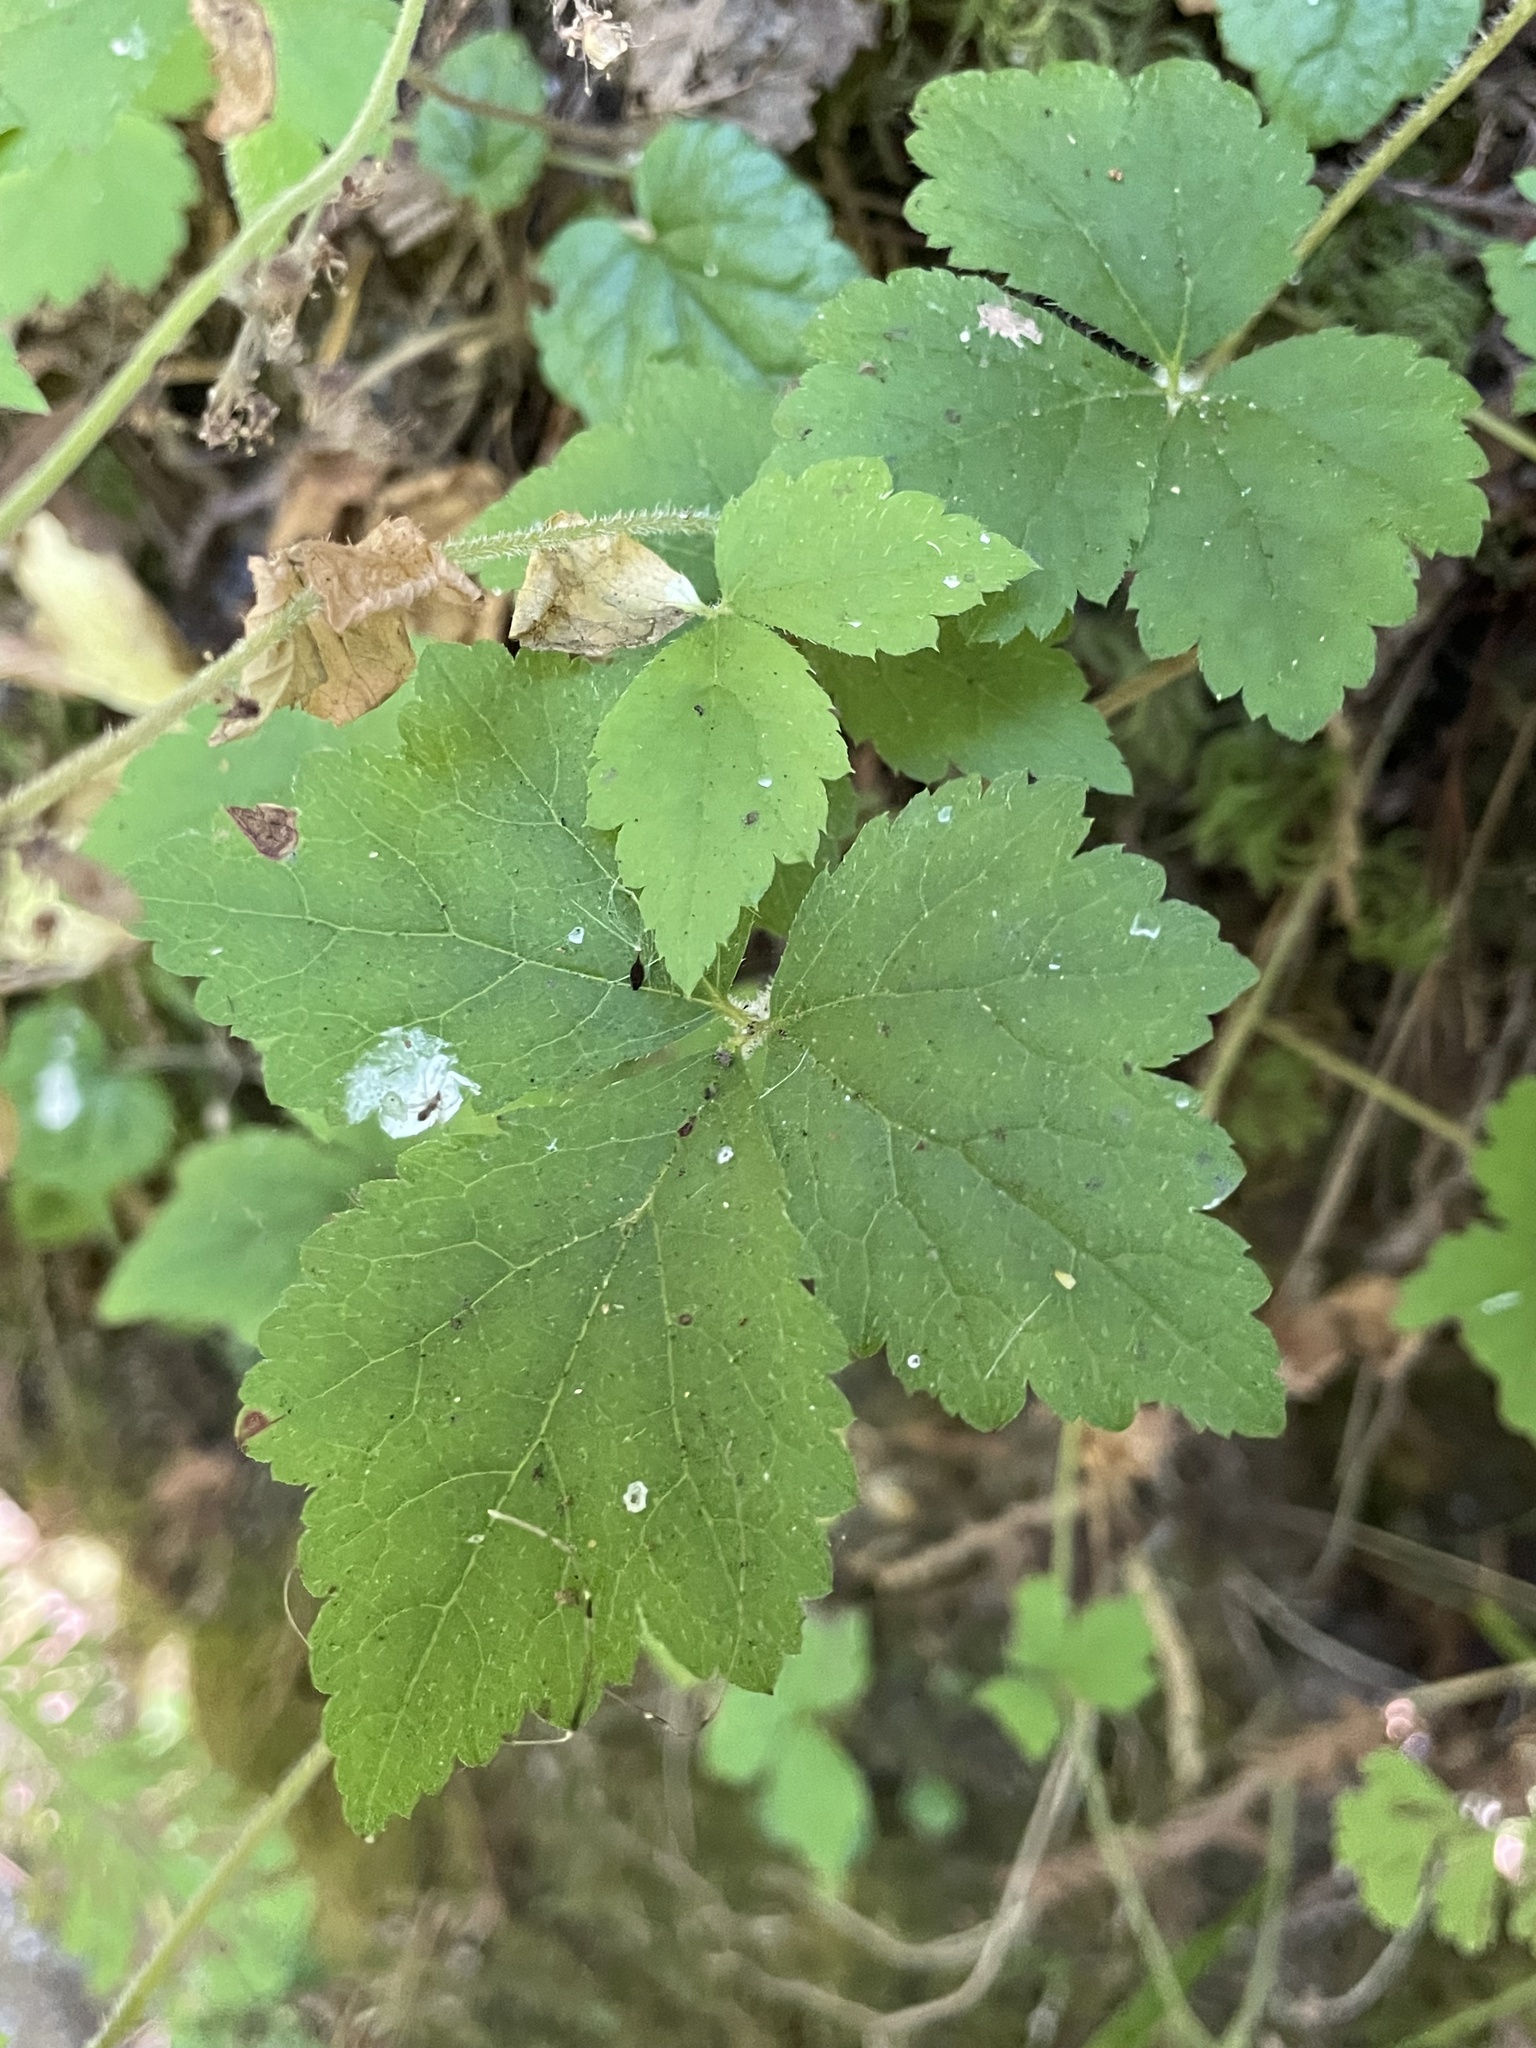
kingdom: Plantae
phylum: Tracheophyta
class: Magnoliopsida
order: Saxifragales
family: Saxifragaceae
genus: Tiarella
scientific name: Tiarella trifoliata
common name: Sugar-scoop
